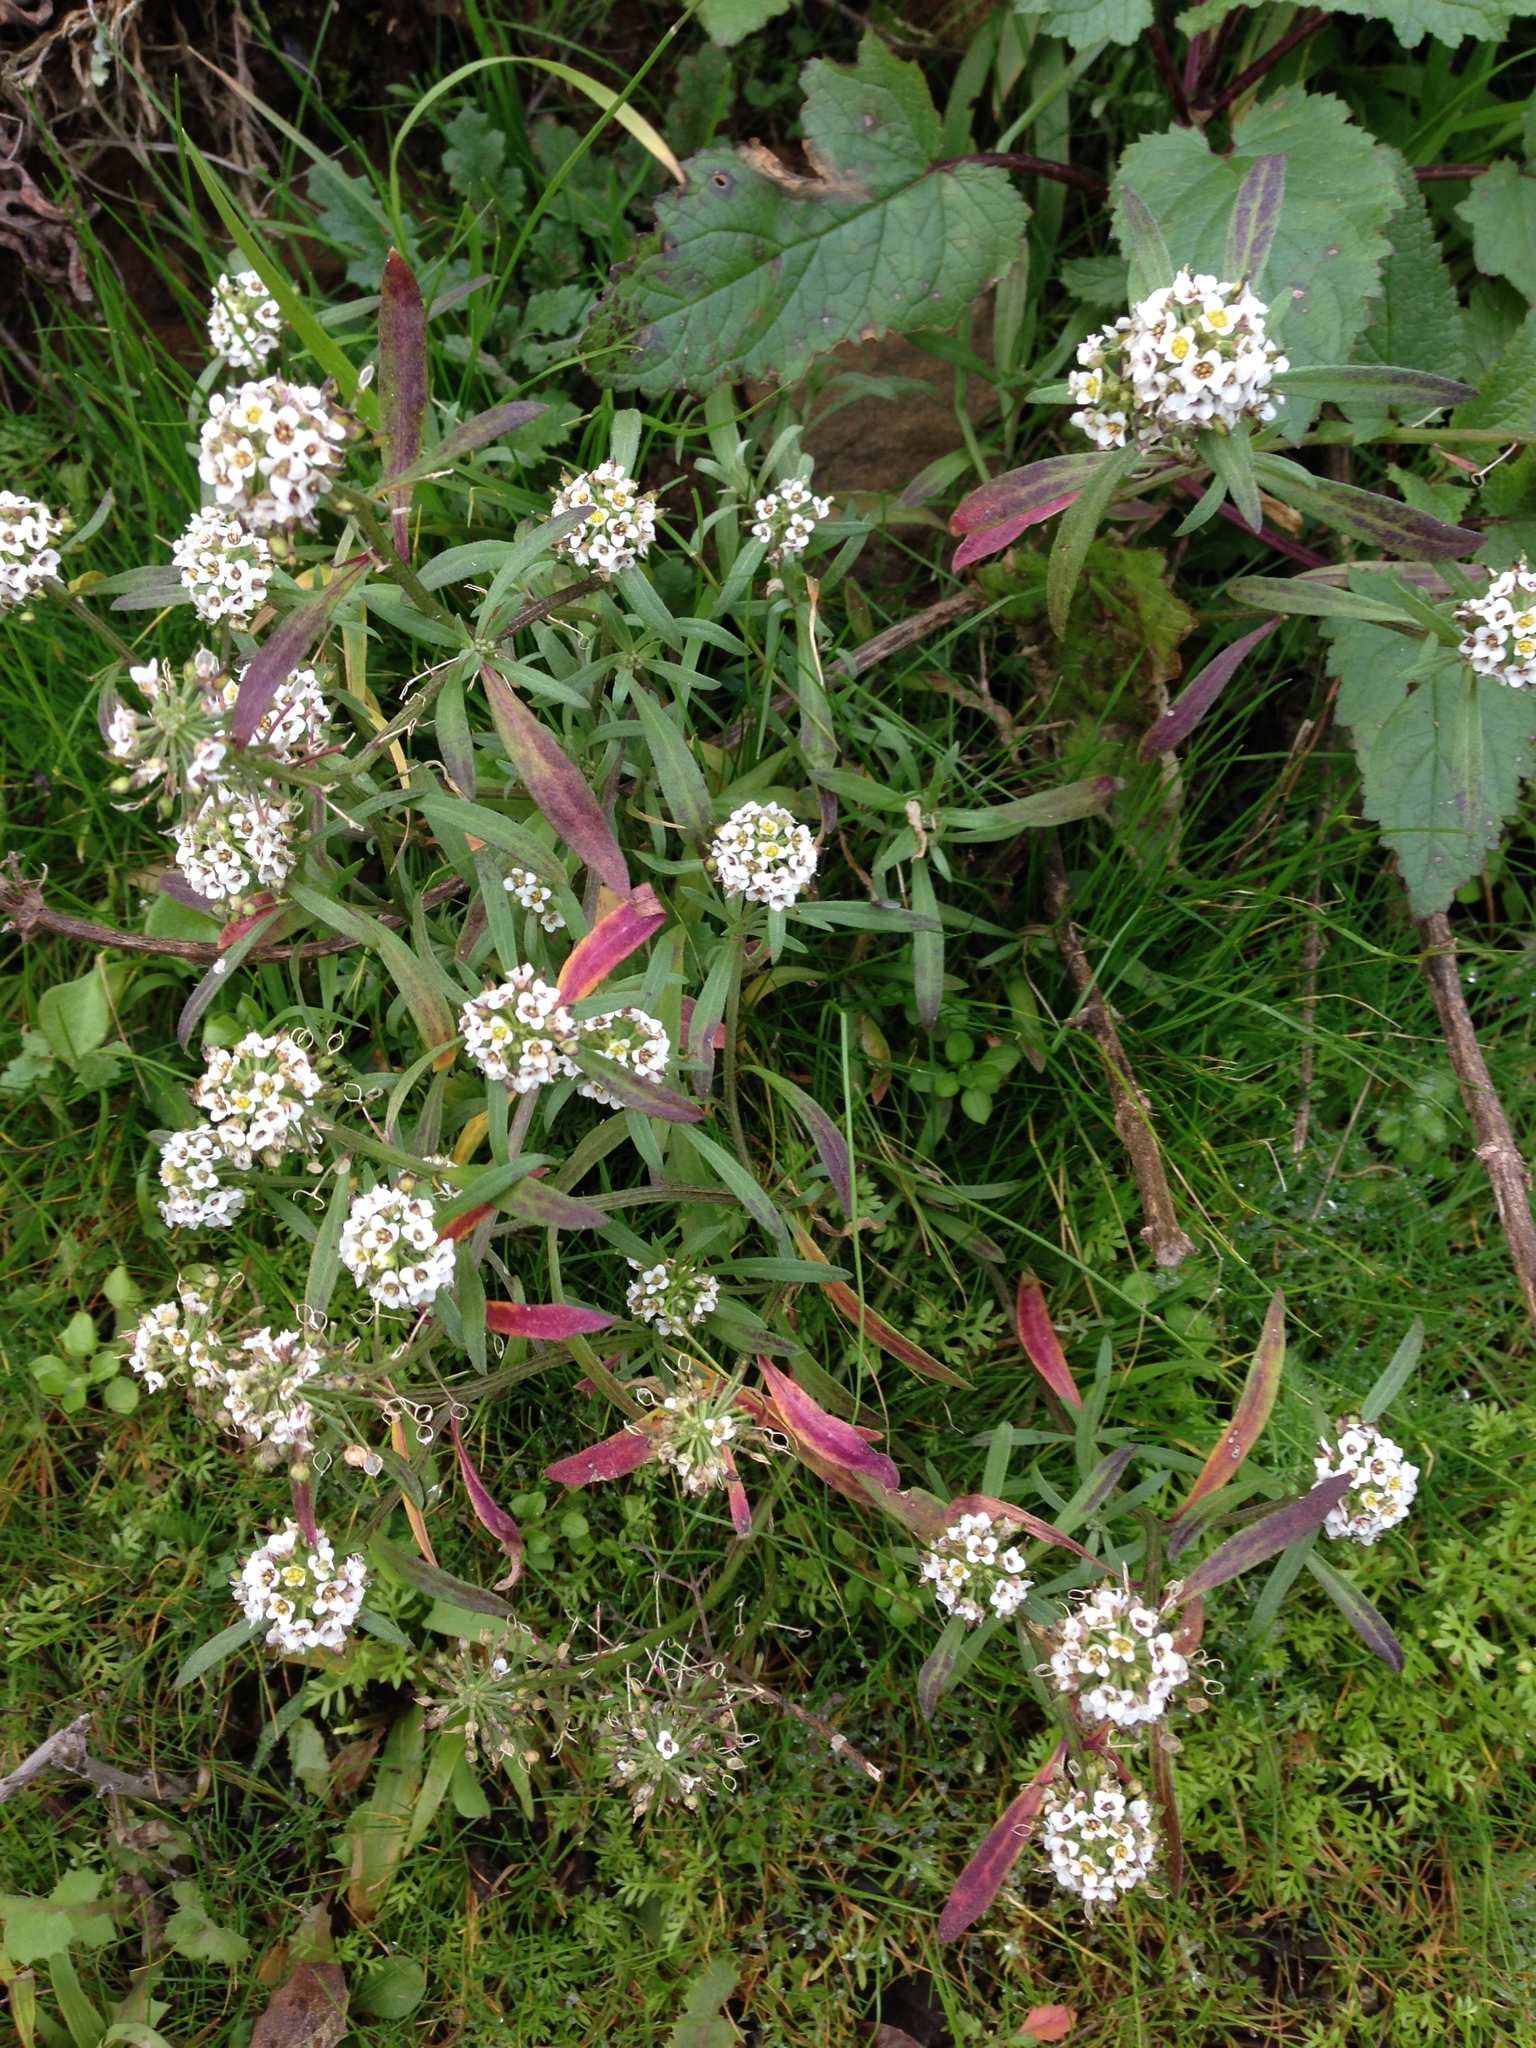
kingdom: Plantae
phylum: Tracheophyta
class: Magnoliopsida
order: Brassicales
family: Brassicaceae
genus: Lobularia
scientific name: Lobularia maritima
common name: Sweet alison
